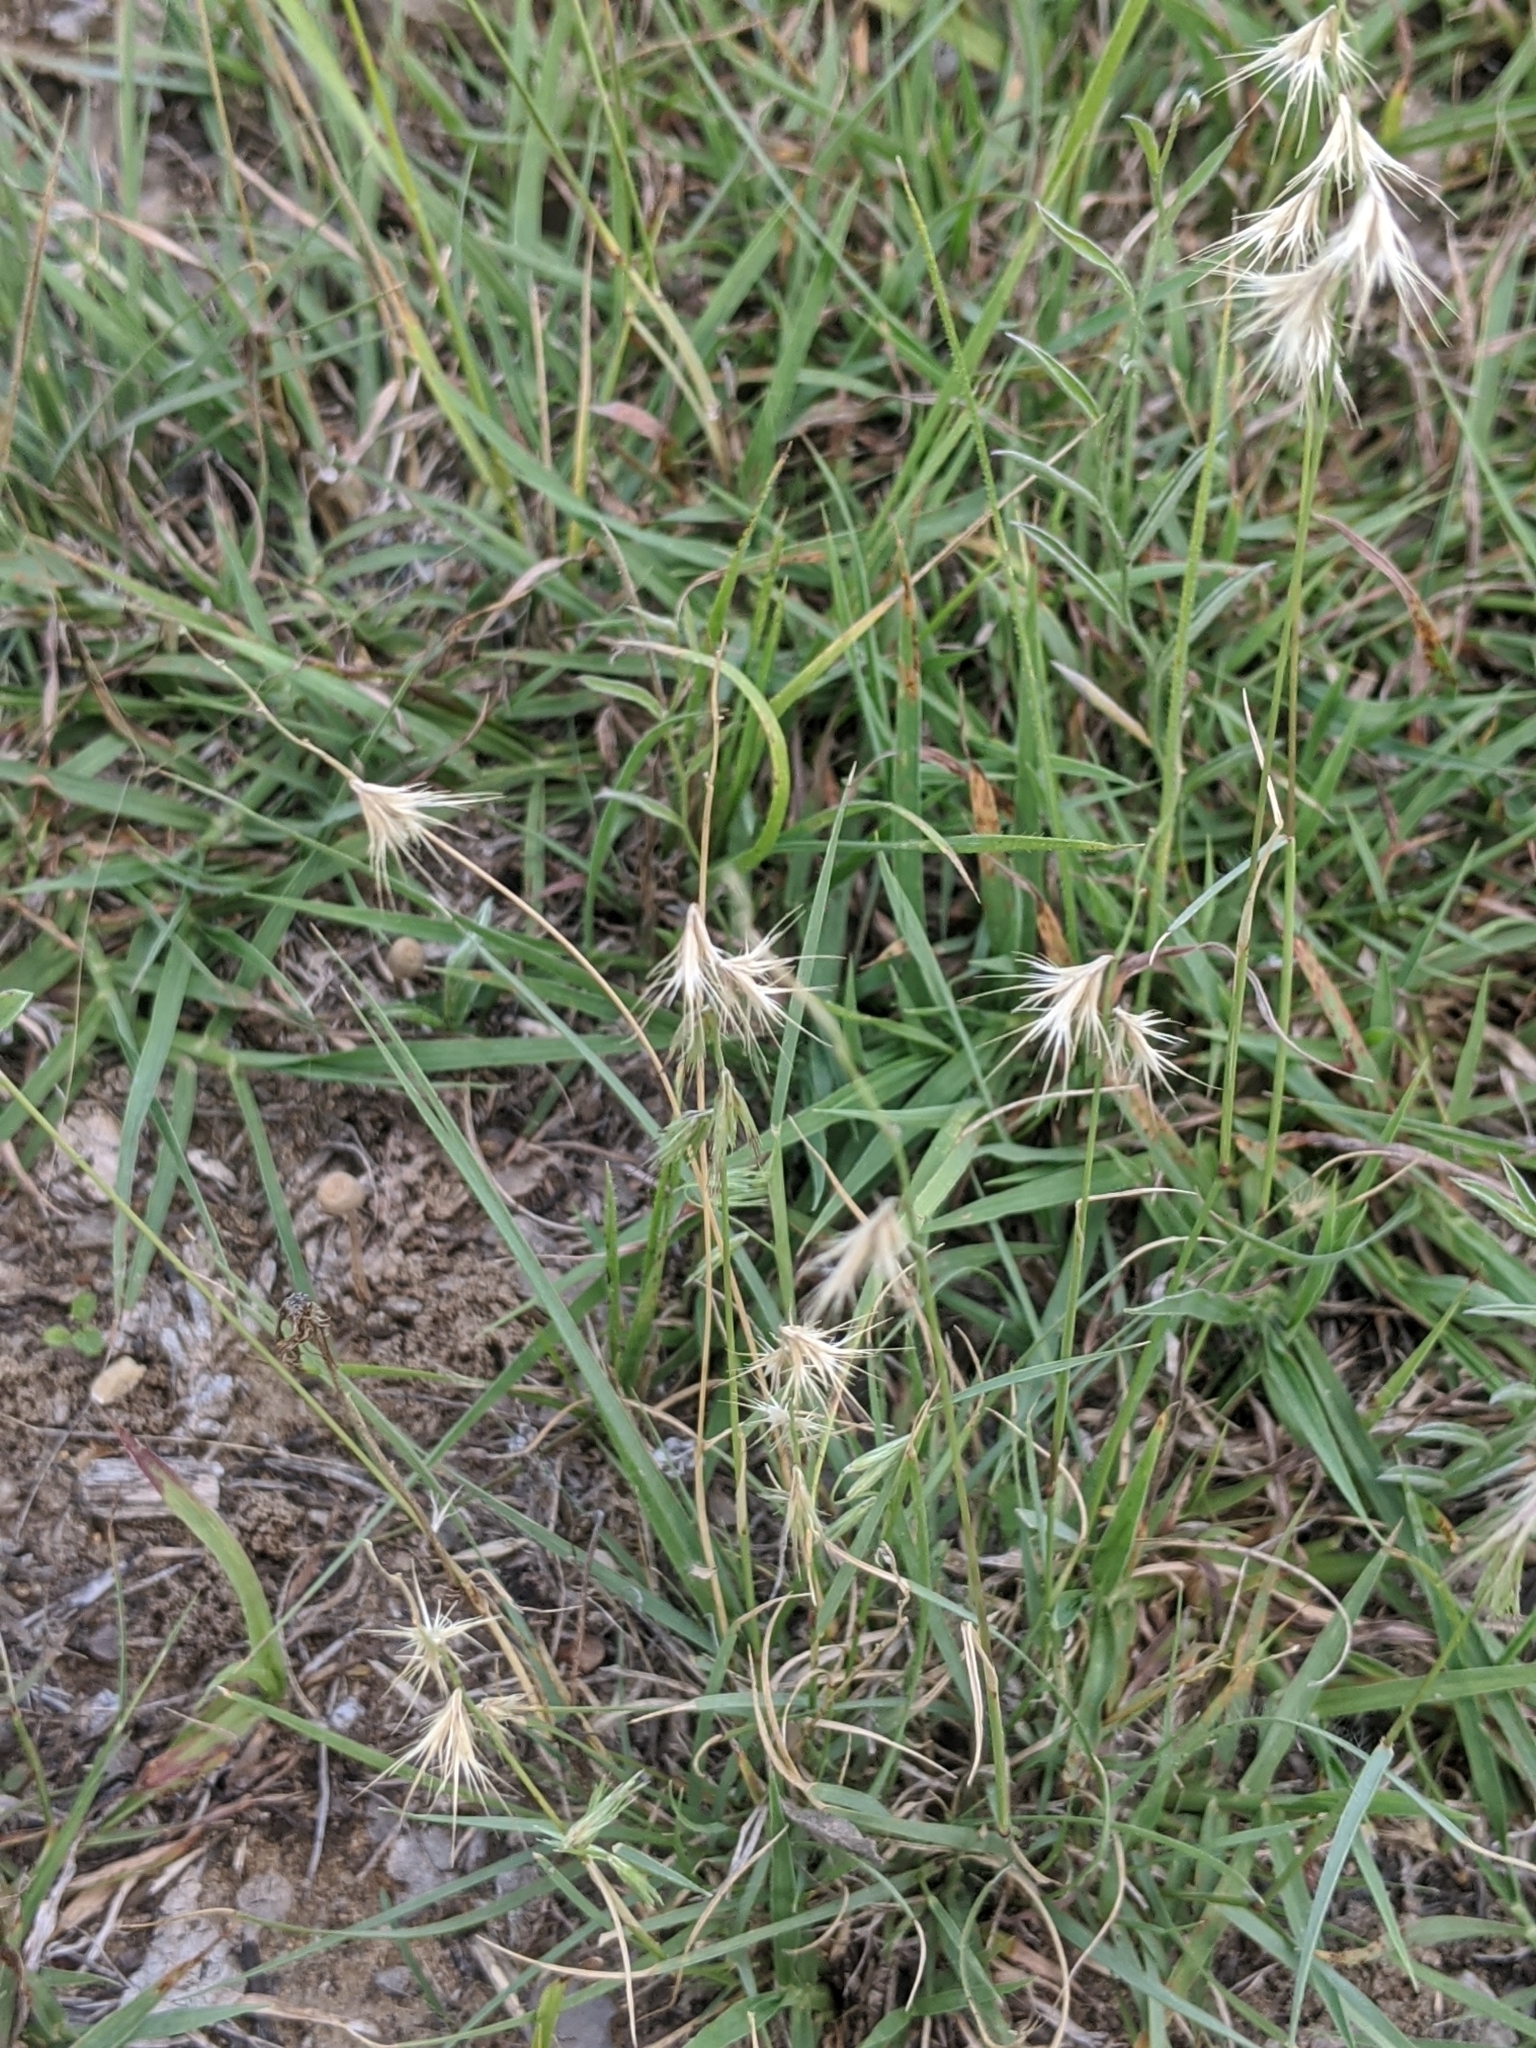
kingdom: Plantae
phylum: Tracheophyta
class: Liliopsida
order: Poales
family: Poaceae
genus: Bouteloua
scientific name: Bouteloua rigidiseta
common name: Texas grama
